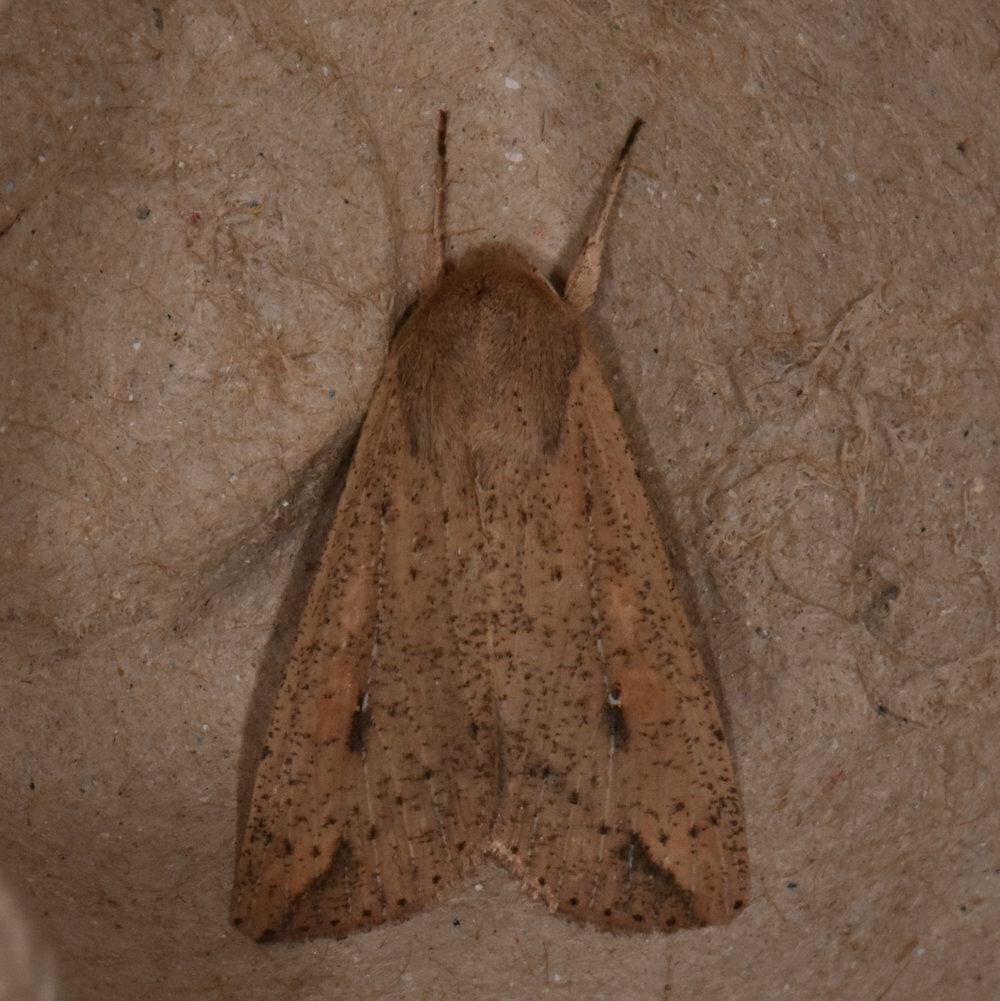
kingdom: Animalia
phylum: Arthropoda
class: Insecta
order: Lepidoptera
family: Noctuidae
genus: Mythimna
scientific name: Mythimna unipuncta
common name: White-speck
